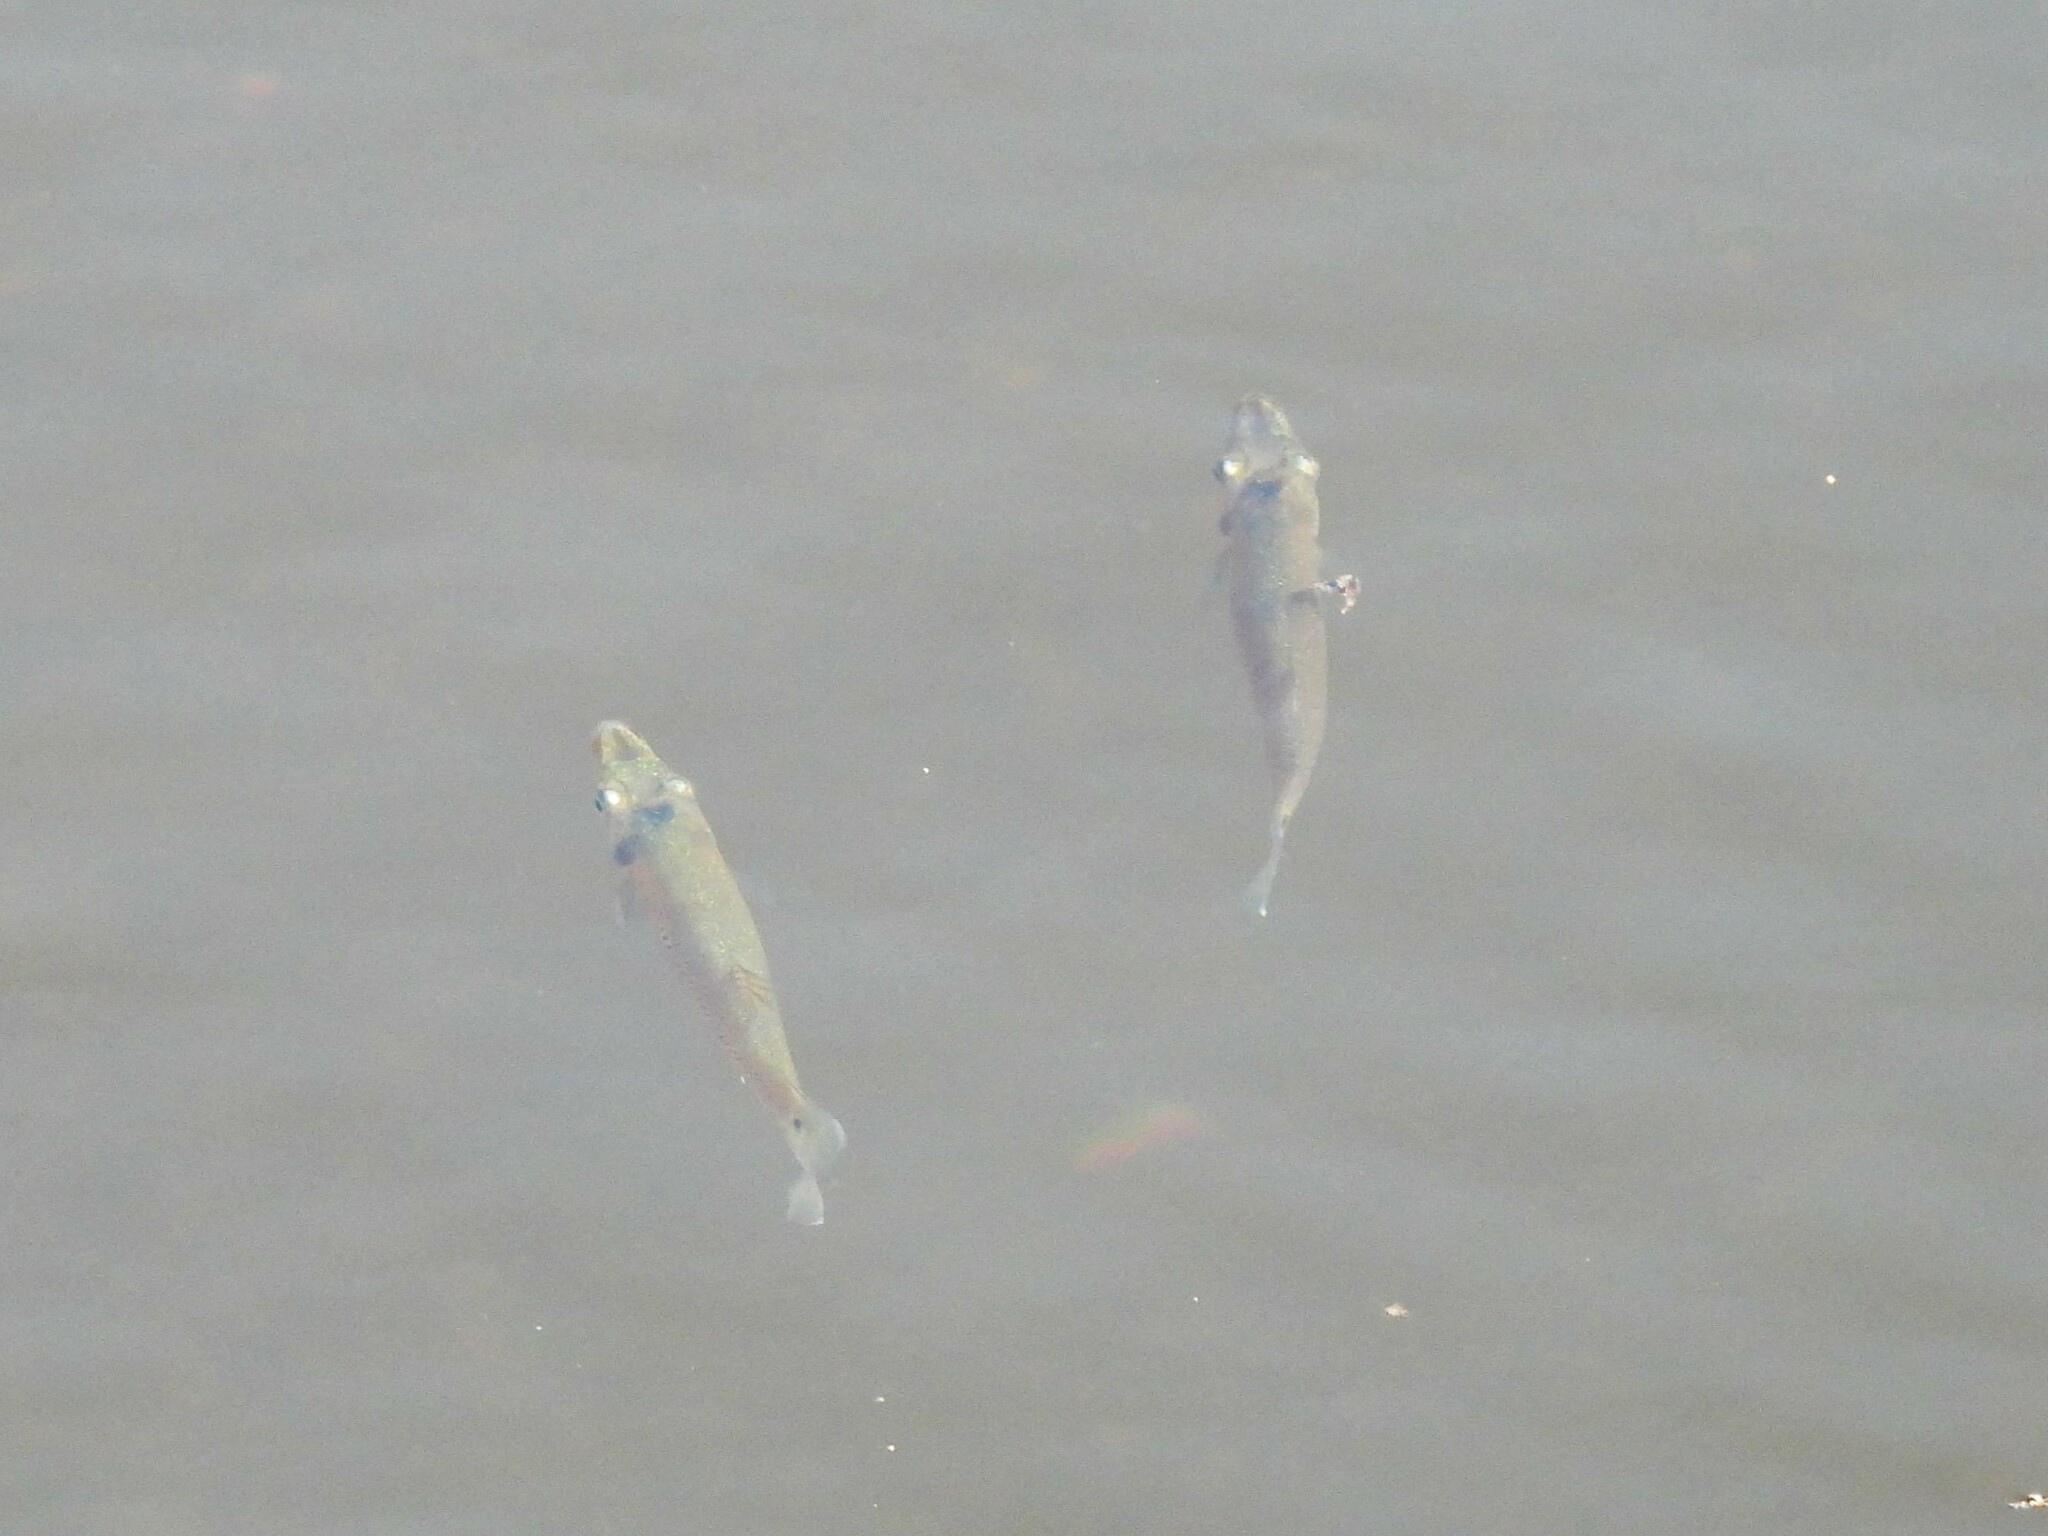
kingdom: Animalia
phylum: Chordata
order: Cyprinodontiformes
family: Poeciliidae
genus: Belonesox
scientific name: Belonesox belizanus
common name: Pike killifish
